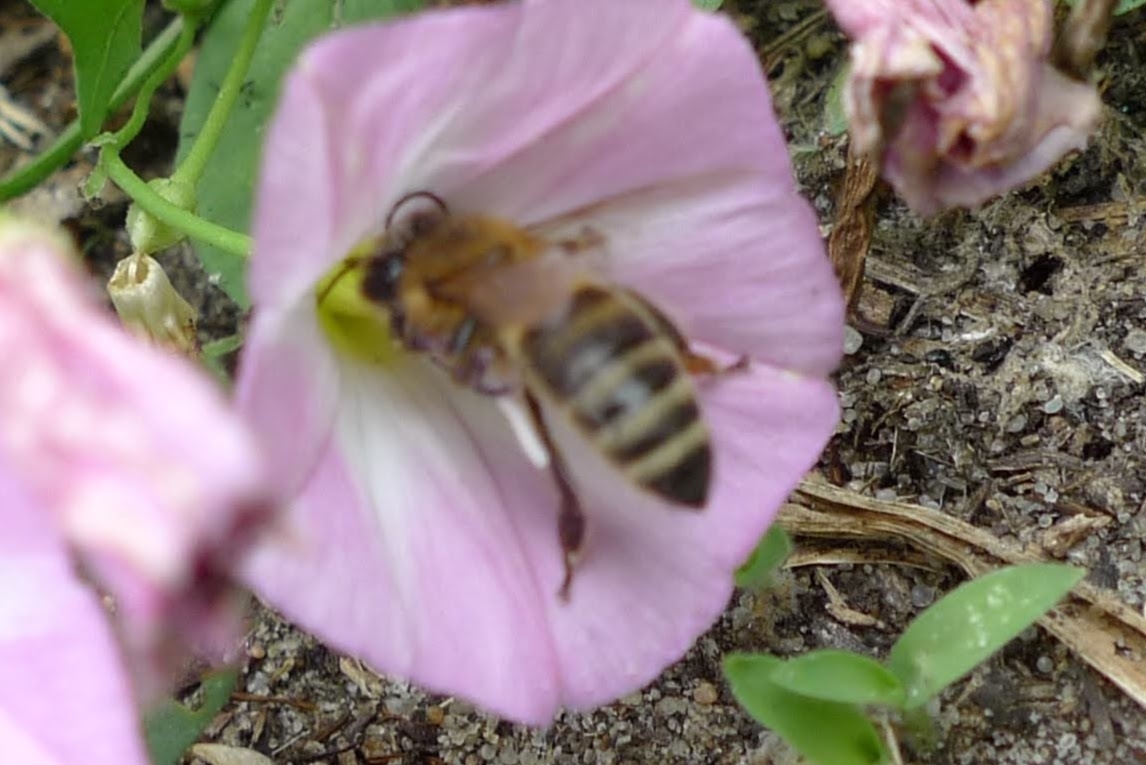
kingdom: Animalia
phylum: Arthropoda
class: Insecta
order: Hymenoptera
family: Apidae
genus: Apis
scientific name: Apis mellifera
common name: Honey bee
